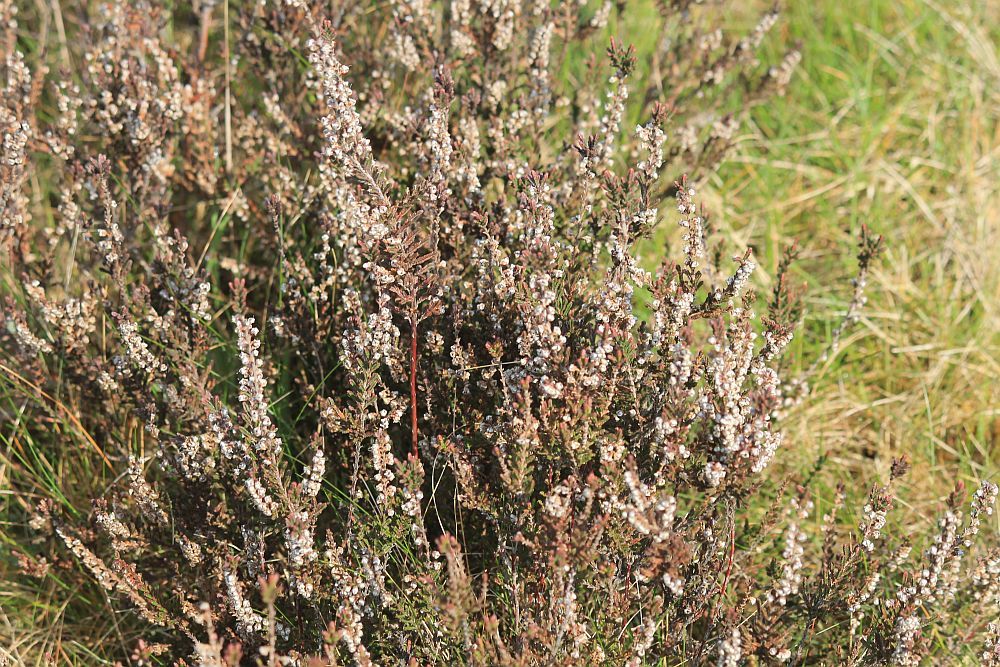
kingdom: Plantae
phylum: Tracheophyta
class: Magnoliopsida
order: Ericales
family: Ericaceae
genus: Calluna
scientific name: Calluna vulgaris
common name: Heather
